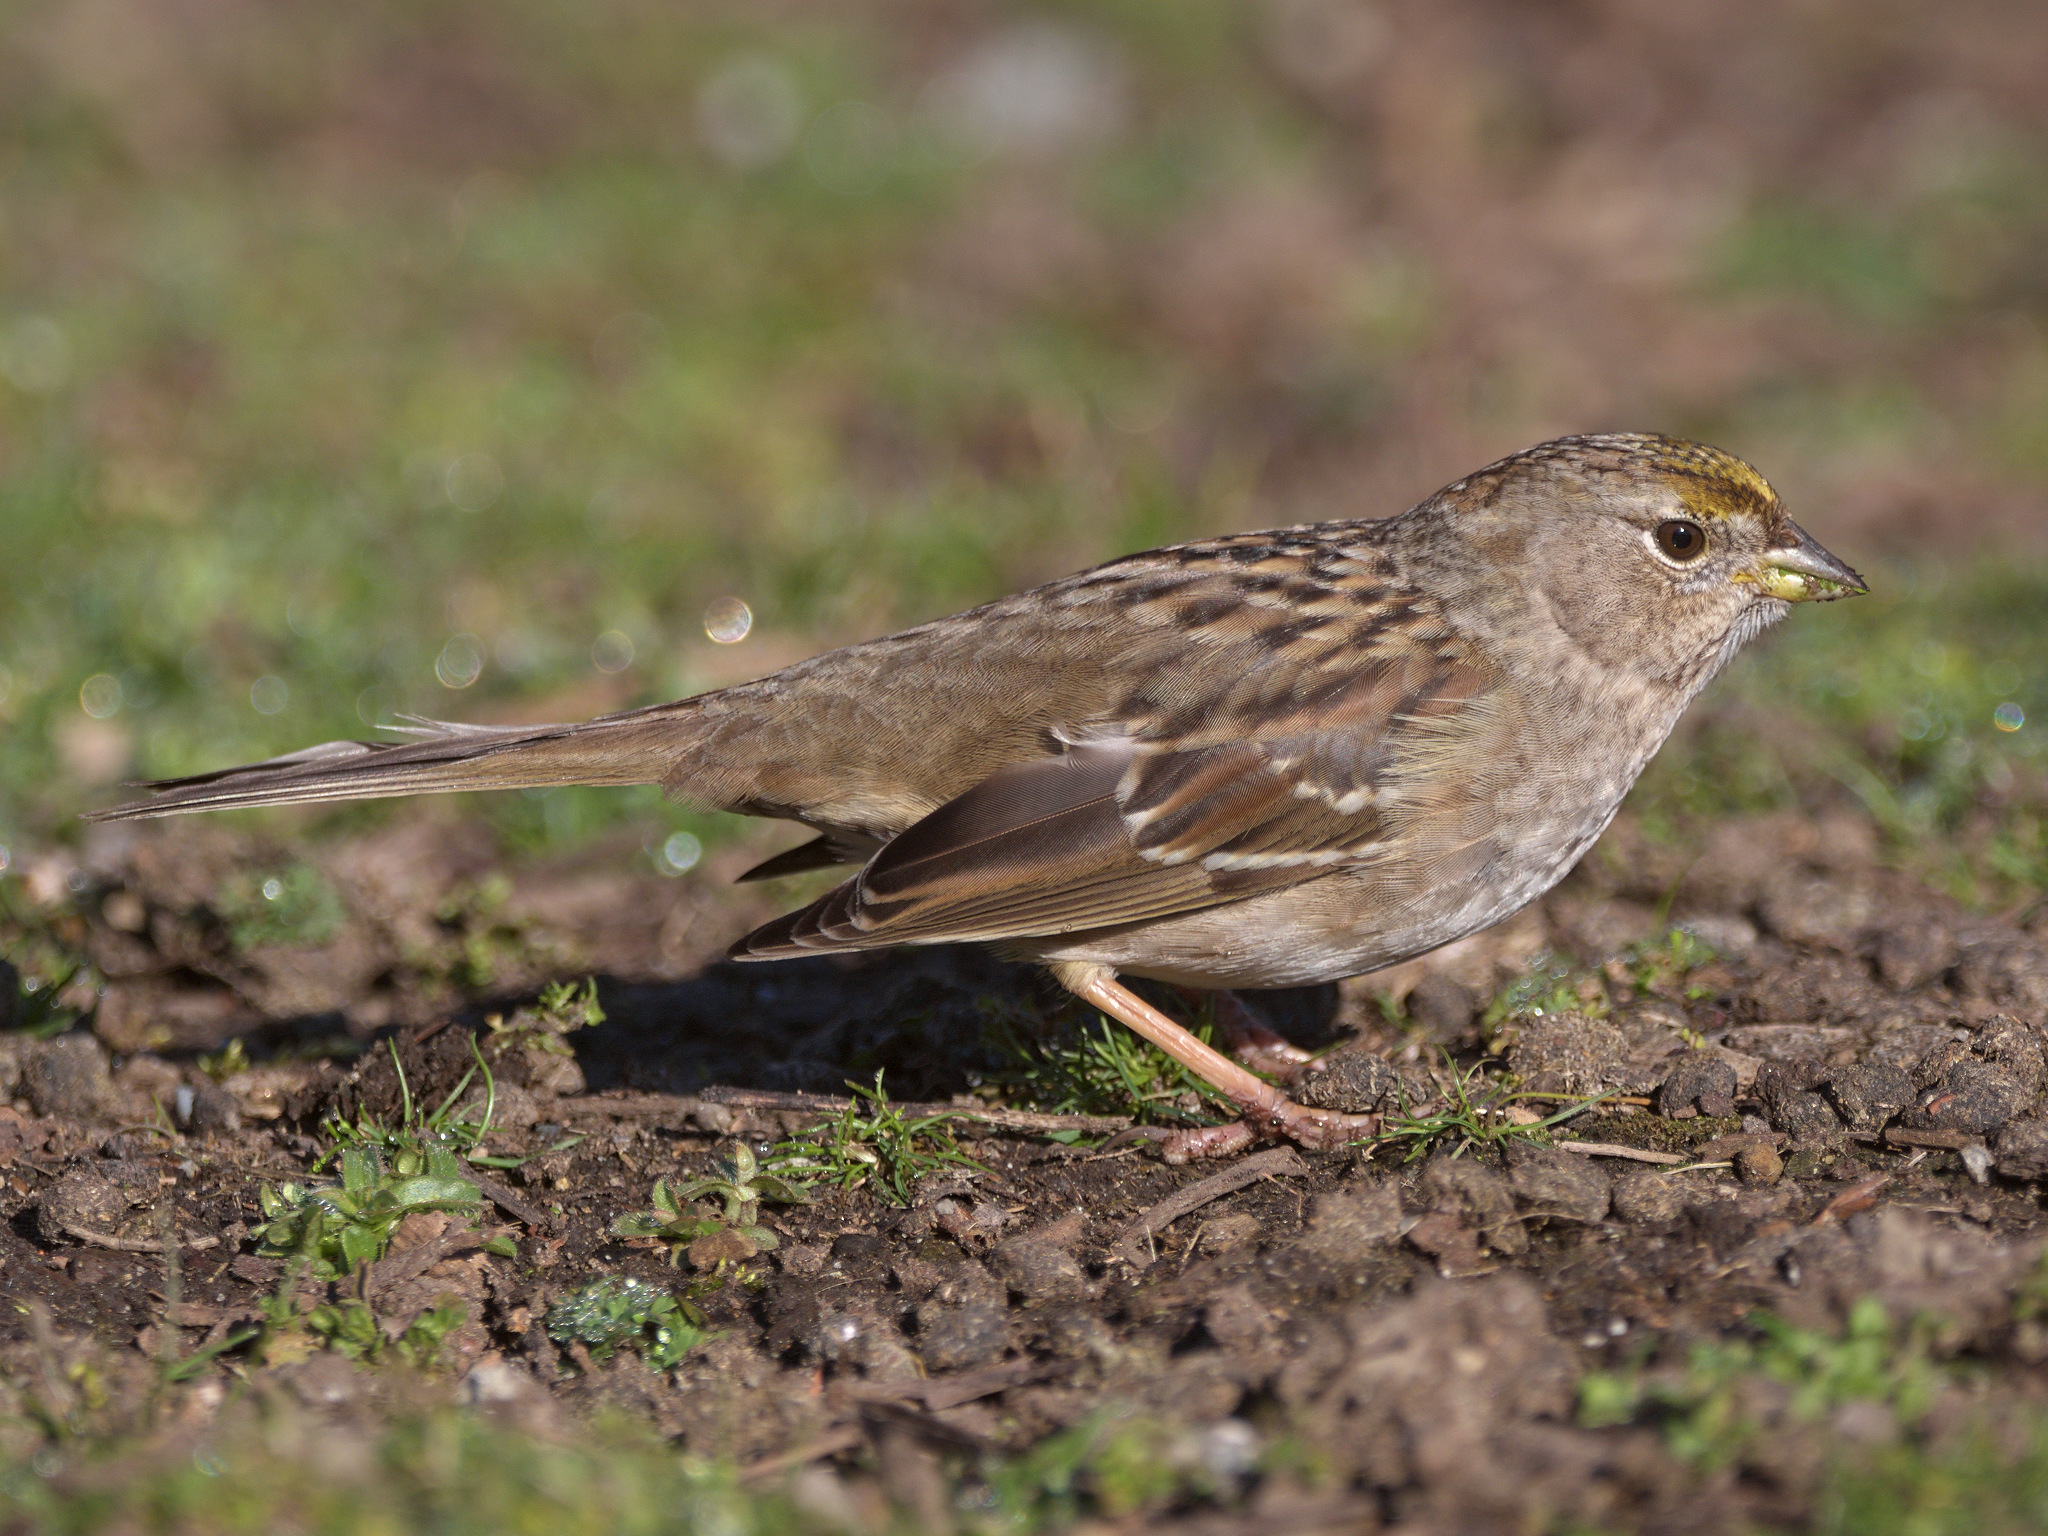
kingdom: Animalia
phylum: Chordata
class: Aves
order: Passeriformes
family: Passerellidae
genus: Zonotrichia
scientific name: Zonotrichia atricapilla
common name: Golden-crowned sparrow
